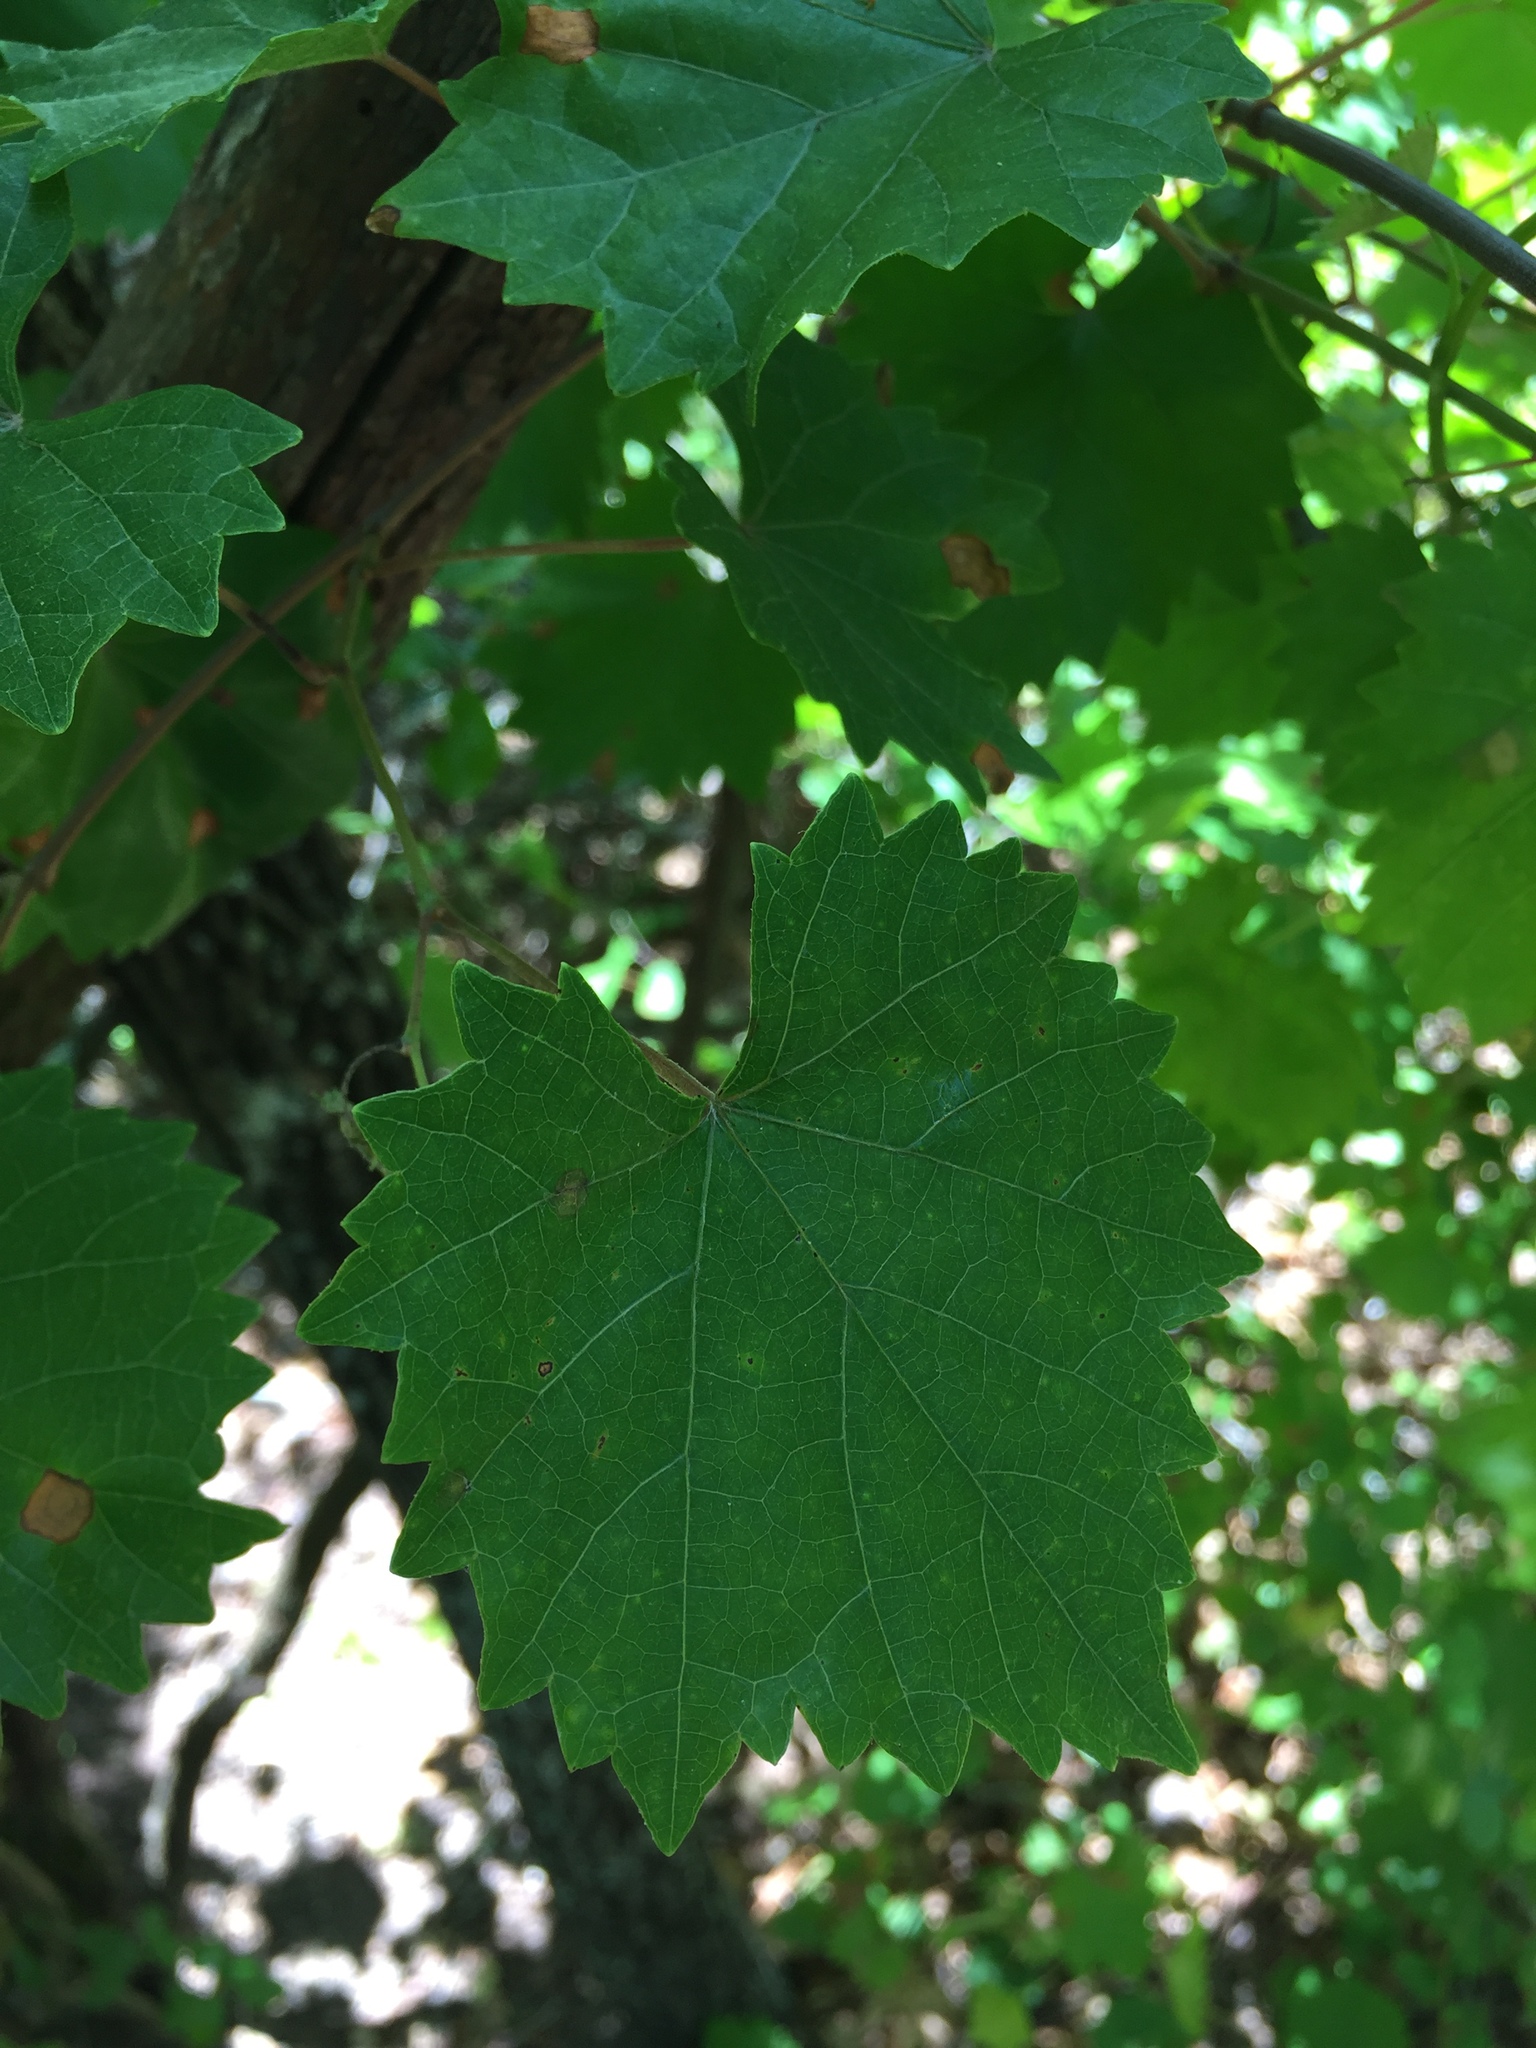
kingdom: Plantae
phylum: Tracheophyta
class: Magnoliopsida
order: Vitales
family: Vitaceae
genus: Vitis
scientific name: Vitis rotundifolia
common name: Muscadine grape
